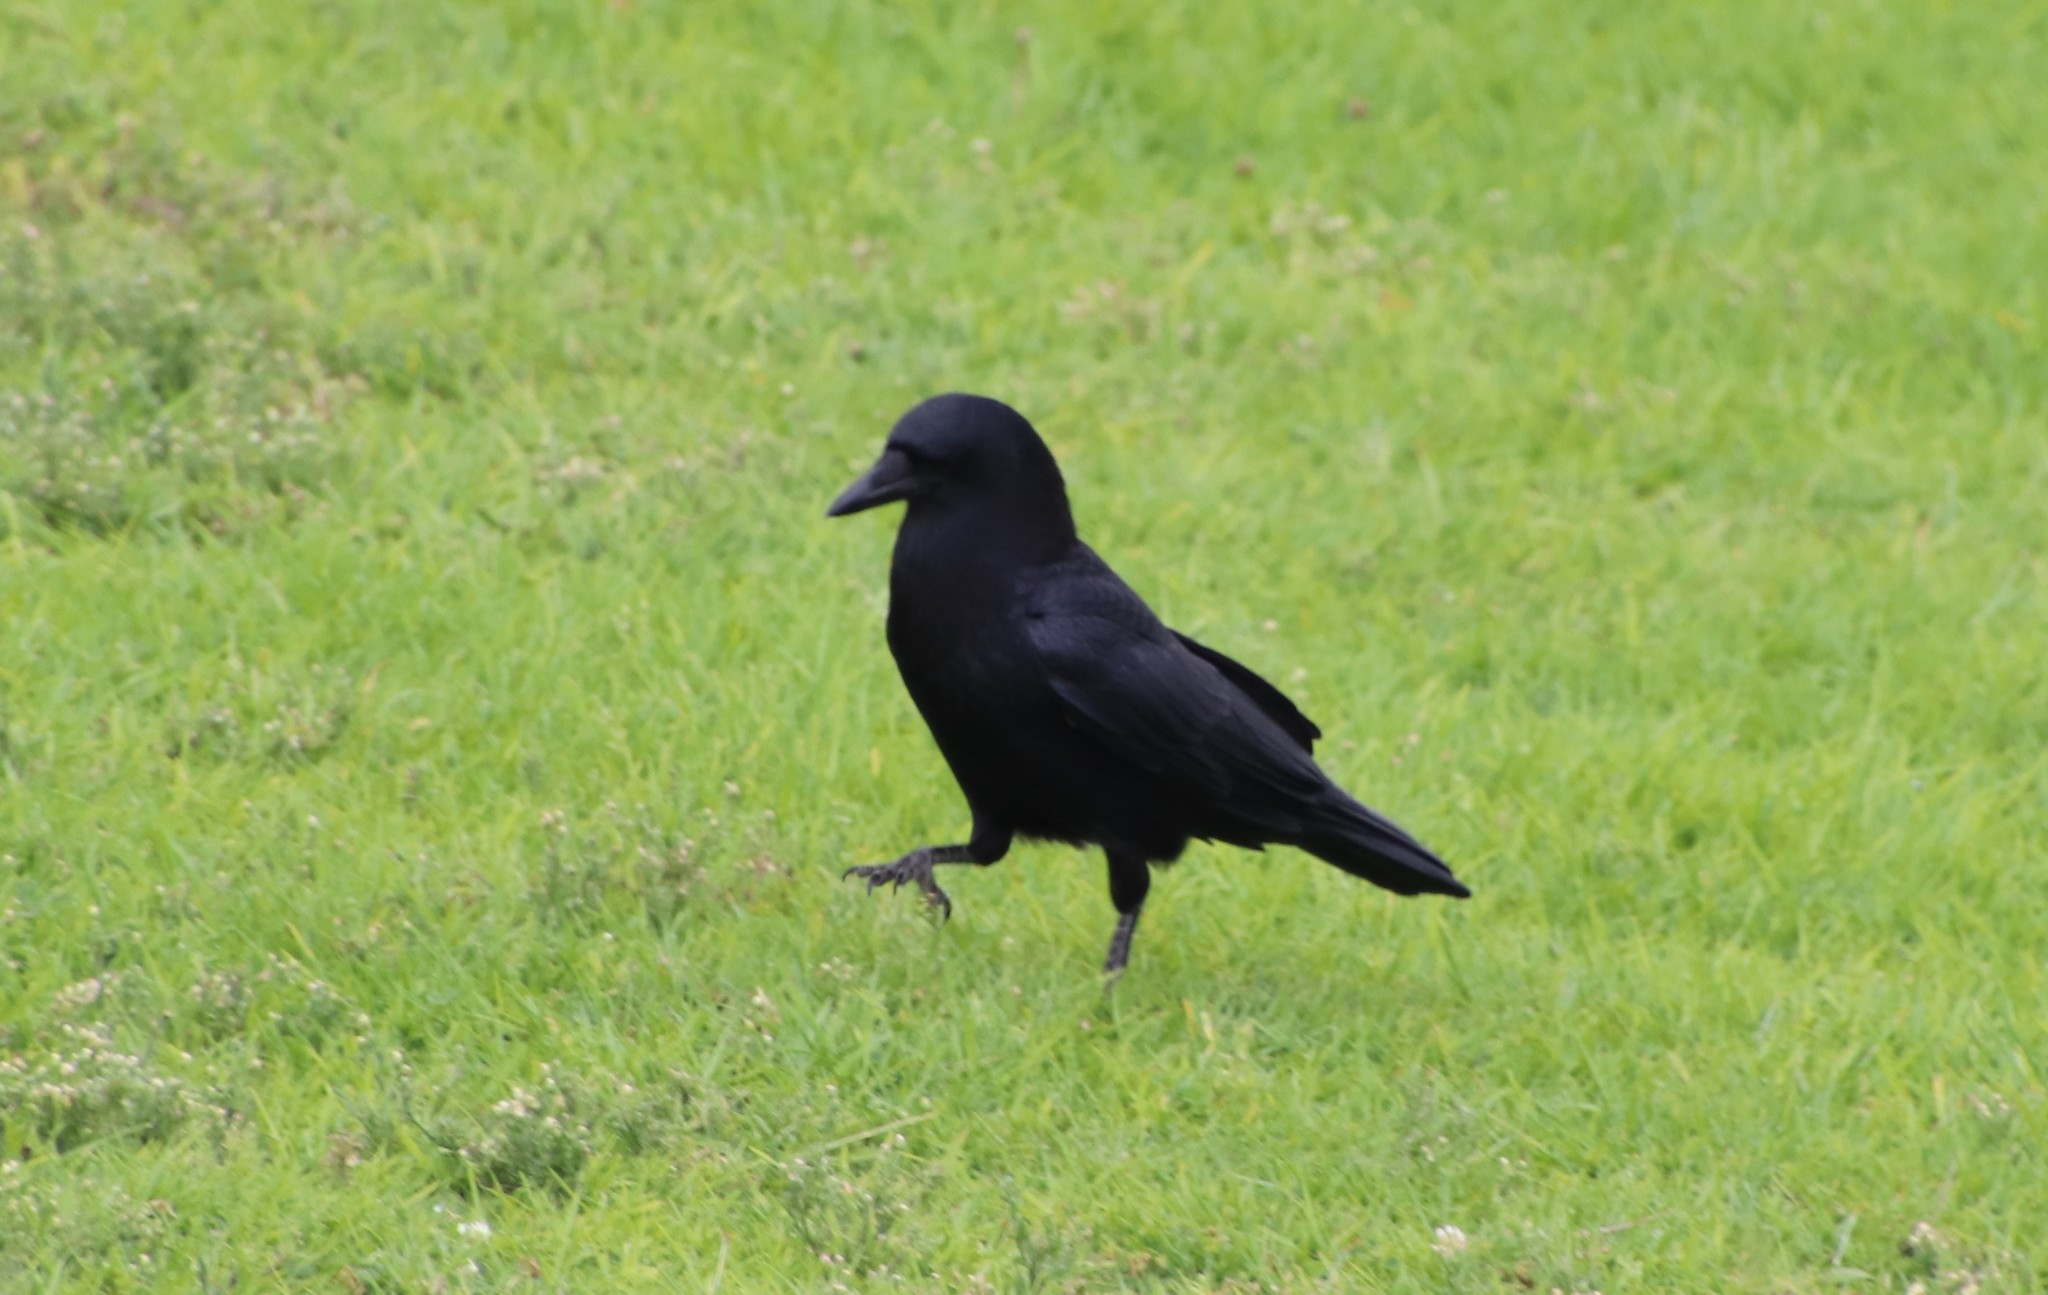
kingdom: Animalia
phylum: Chordata
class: Aves
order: Passeriformes
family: Corvidae
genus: Corvus
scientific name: Corvus brachyrhynchos
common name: American crow
